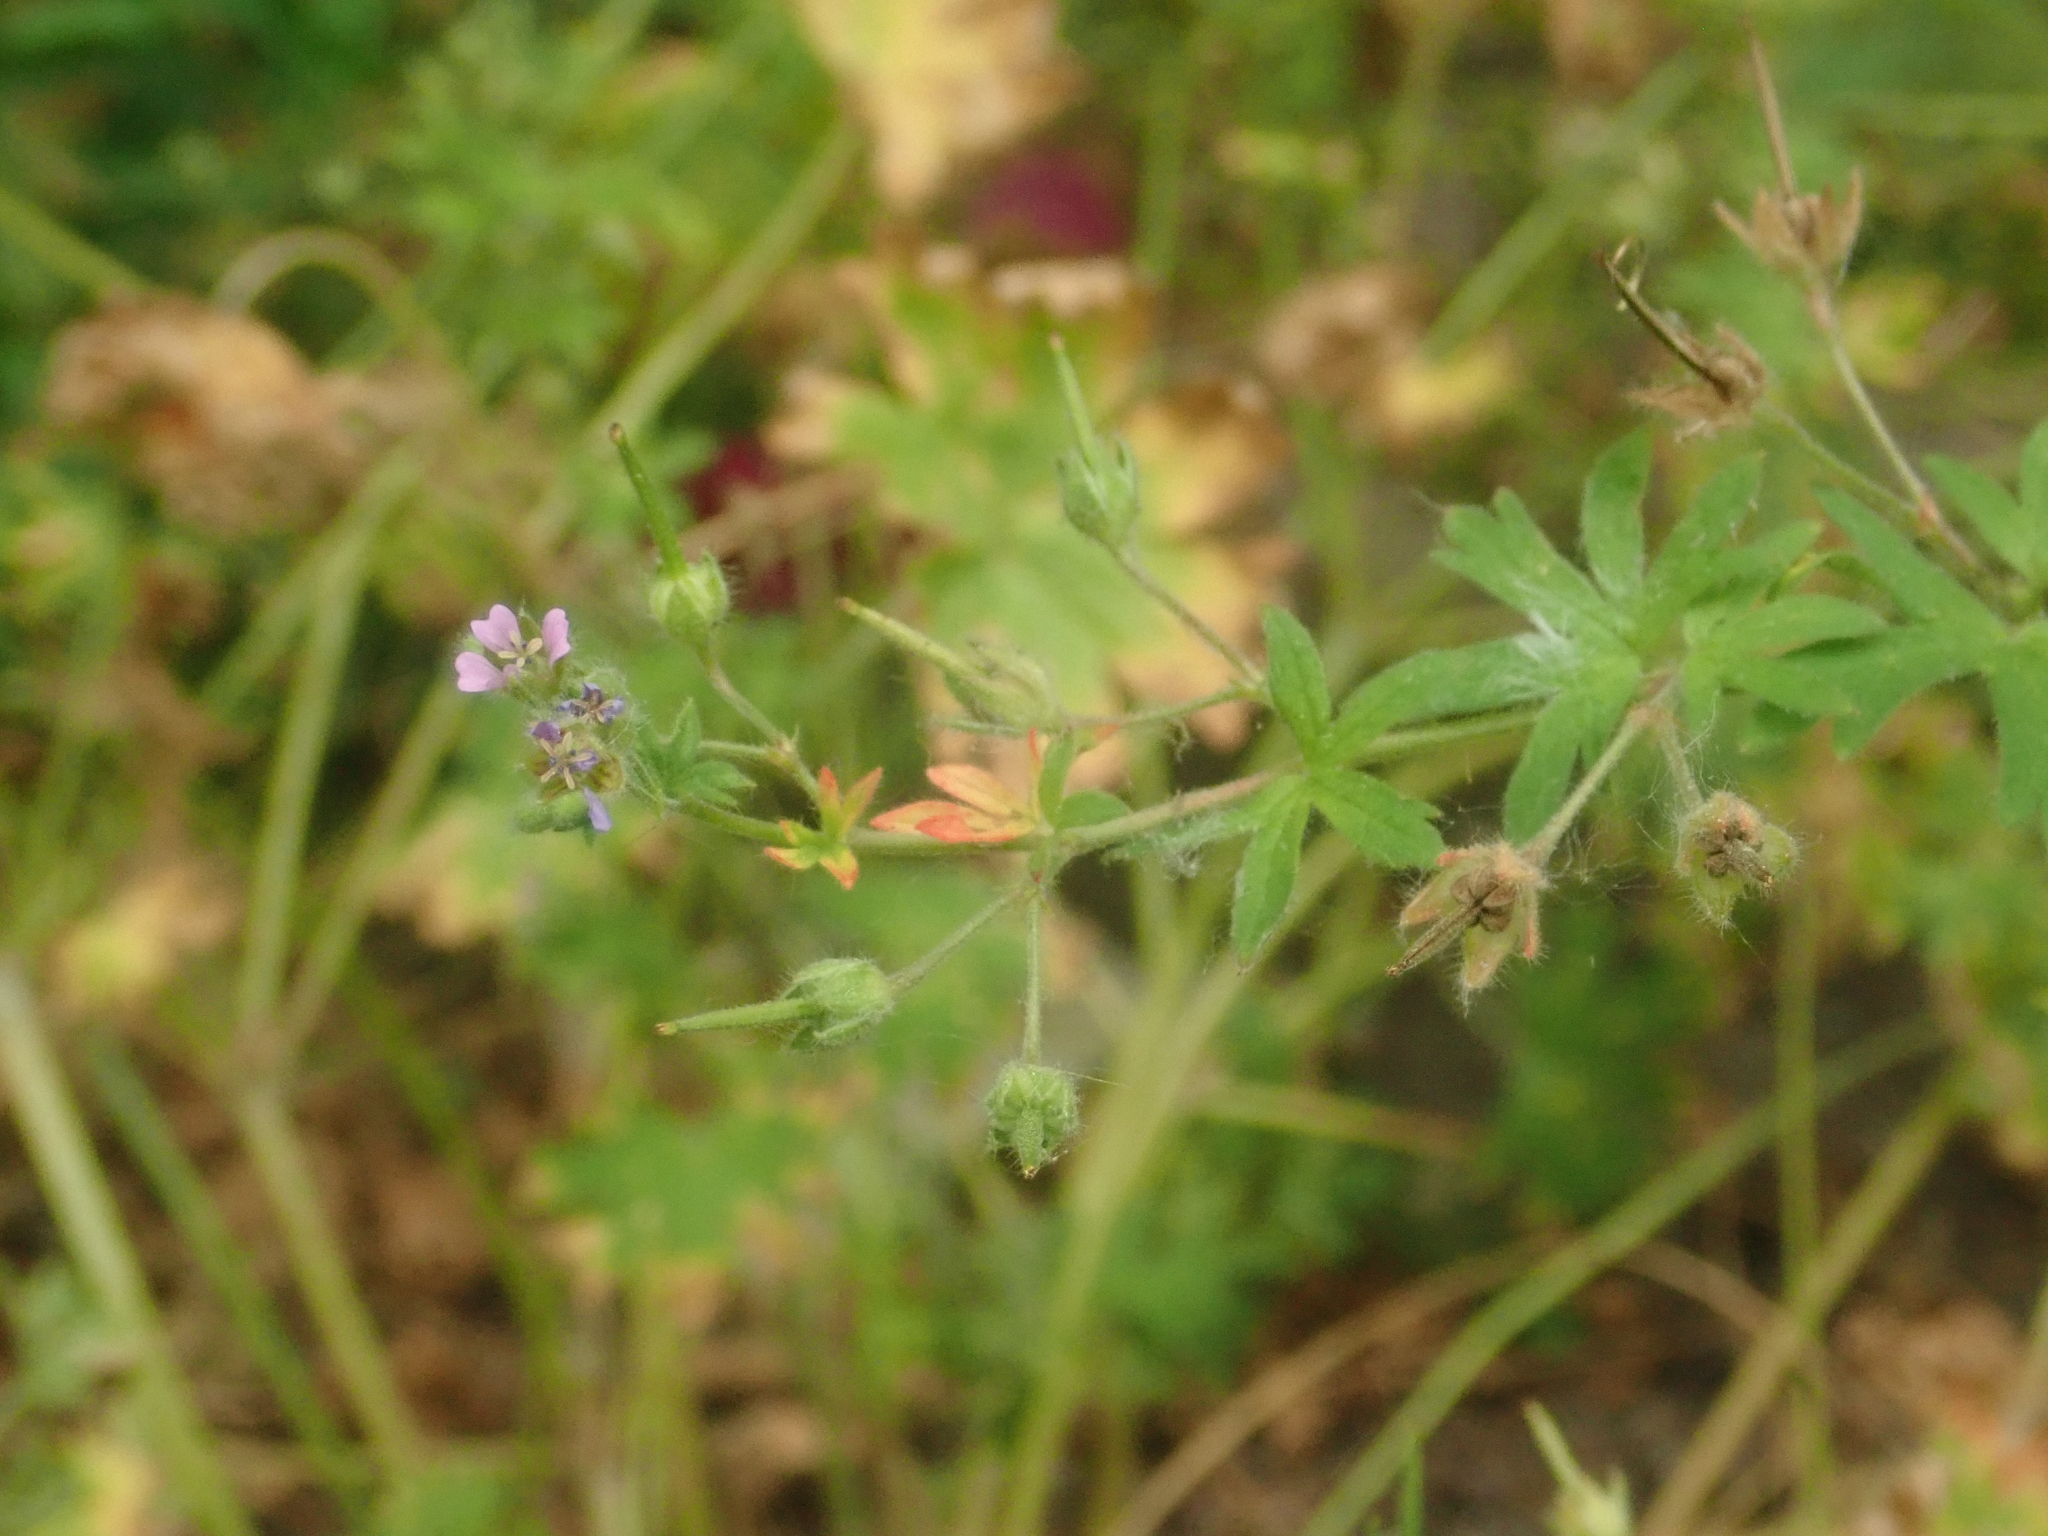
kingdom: Plantae
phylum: Tracheophyta
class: Magnoliopsida
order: Geraniales
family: Geraniaceae
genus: Geranium
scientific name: Geranium pusillum
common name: Small geranium
